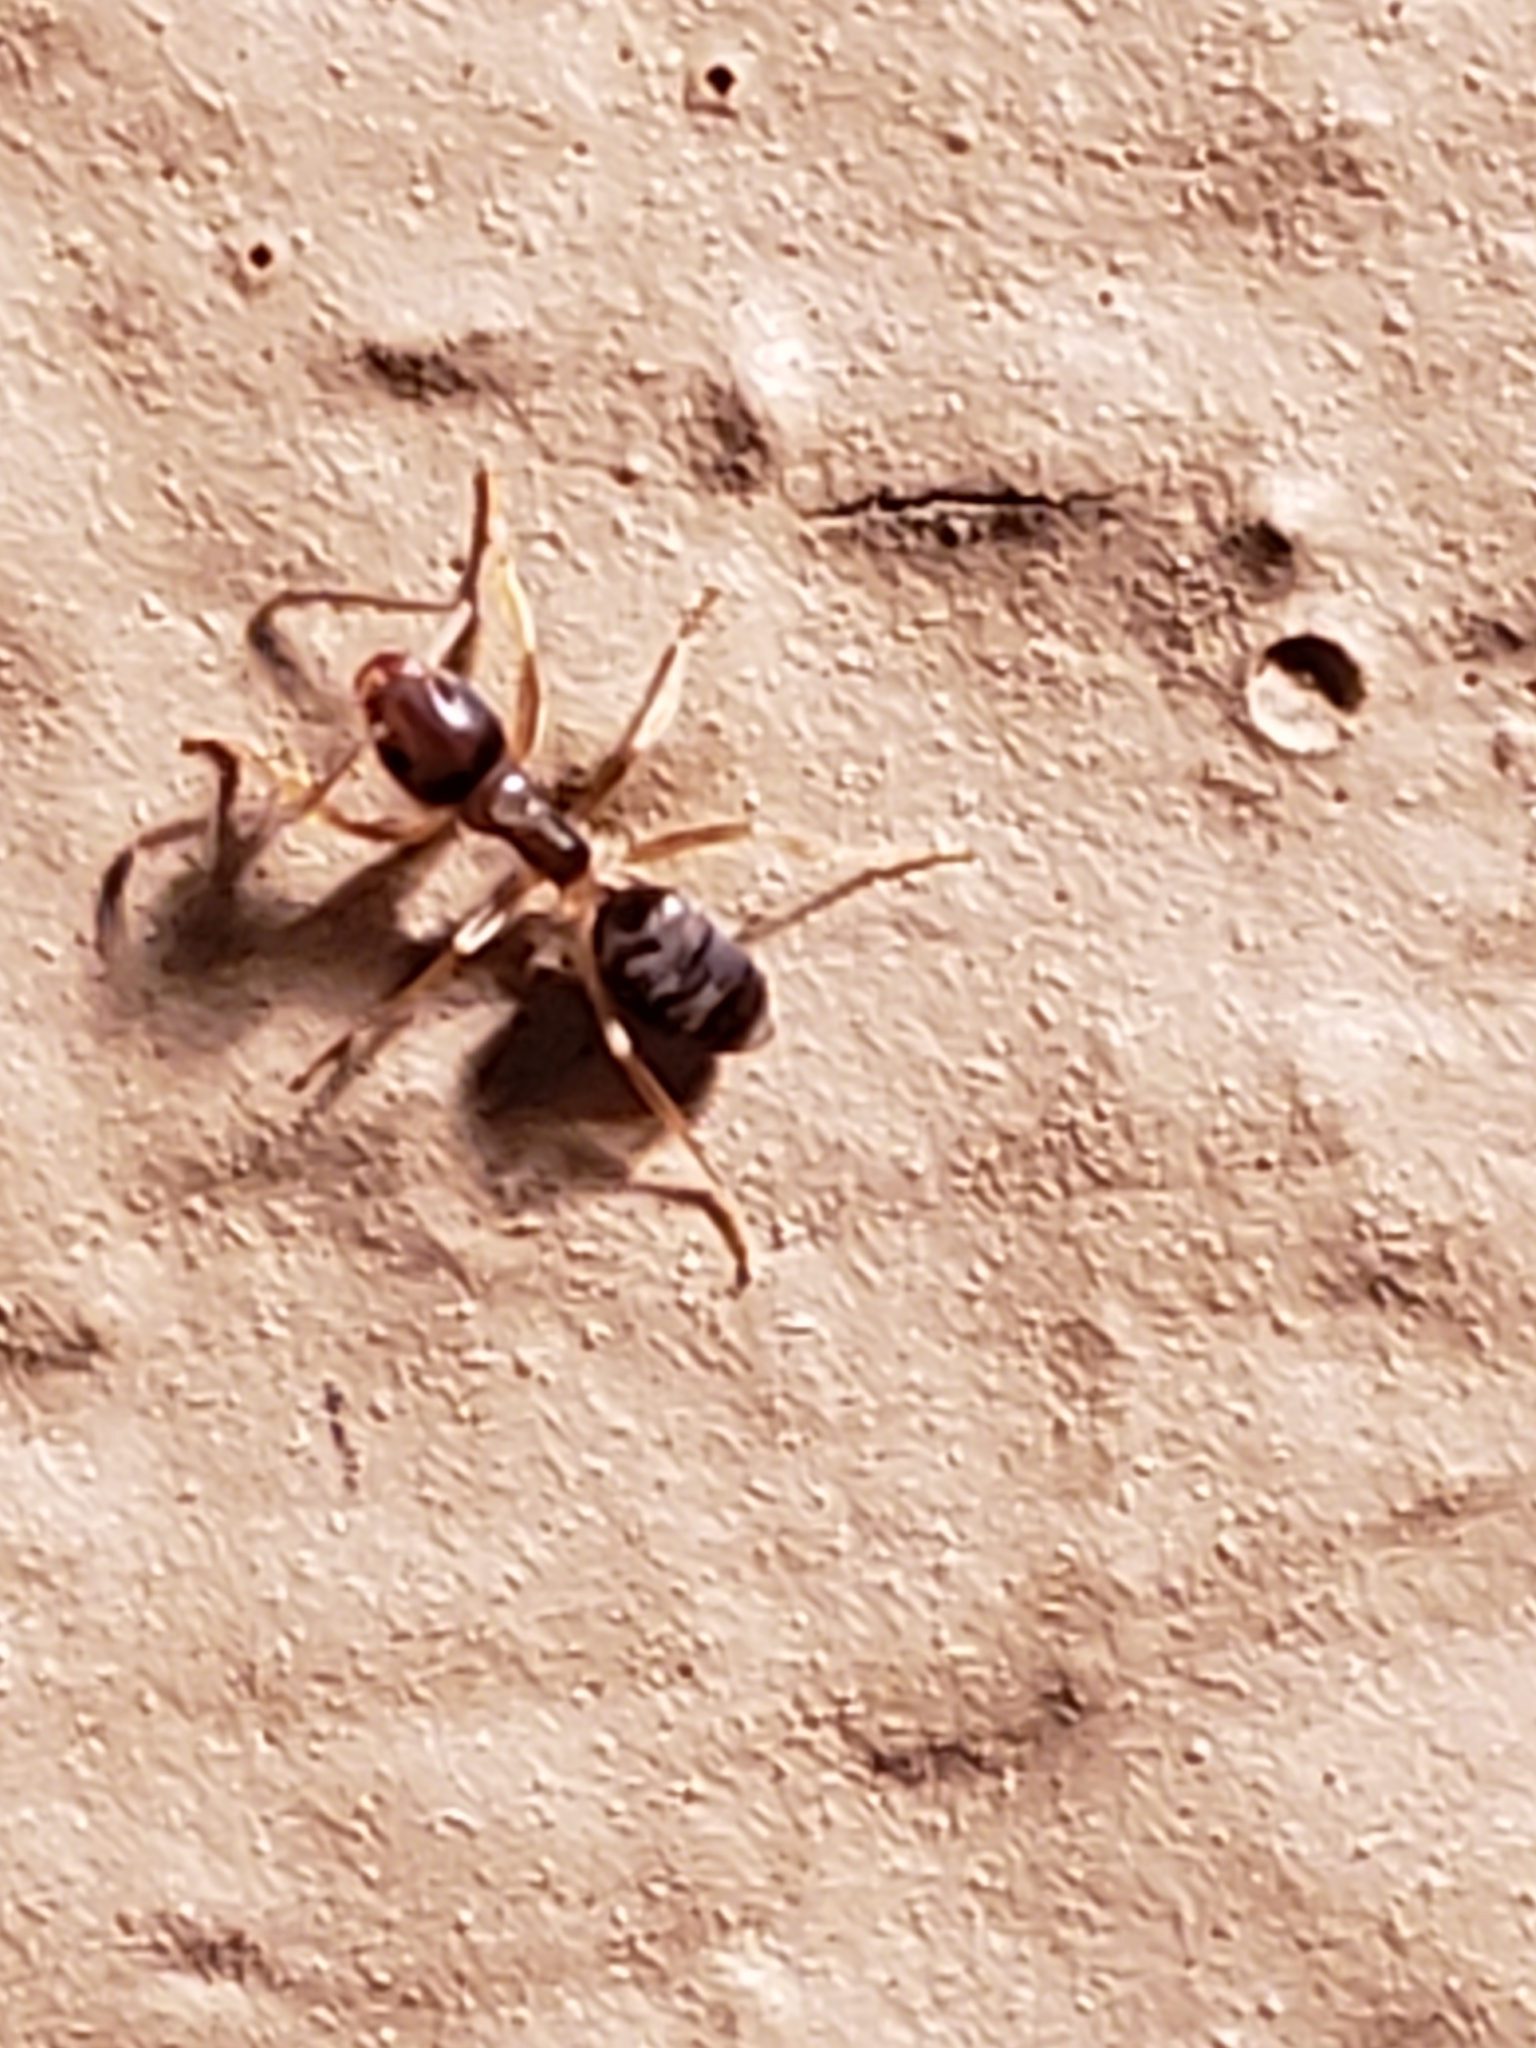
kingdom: Animalia
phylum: Arthropoda
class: Insecta
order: Hymenoptera
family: Formicidae
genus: Tapinoma
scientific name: Tapinoma sessile
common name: Odorous house ant
